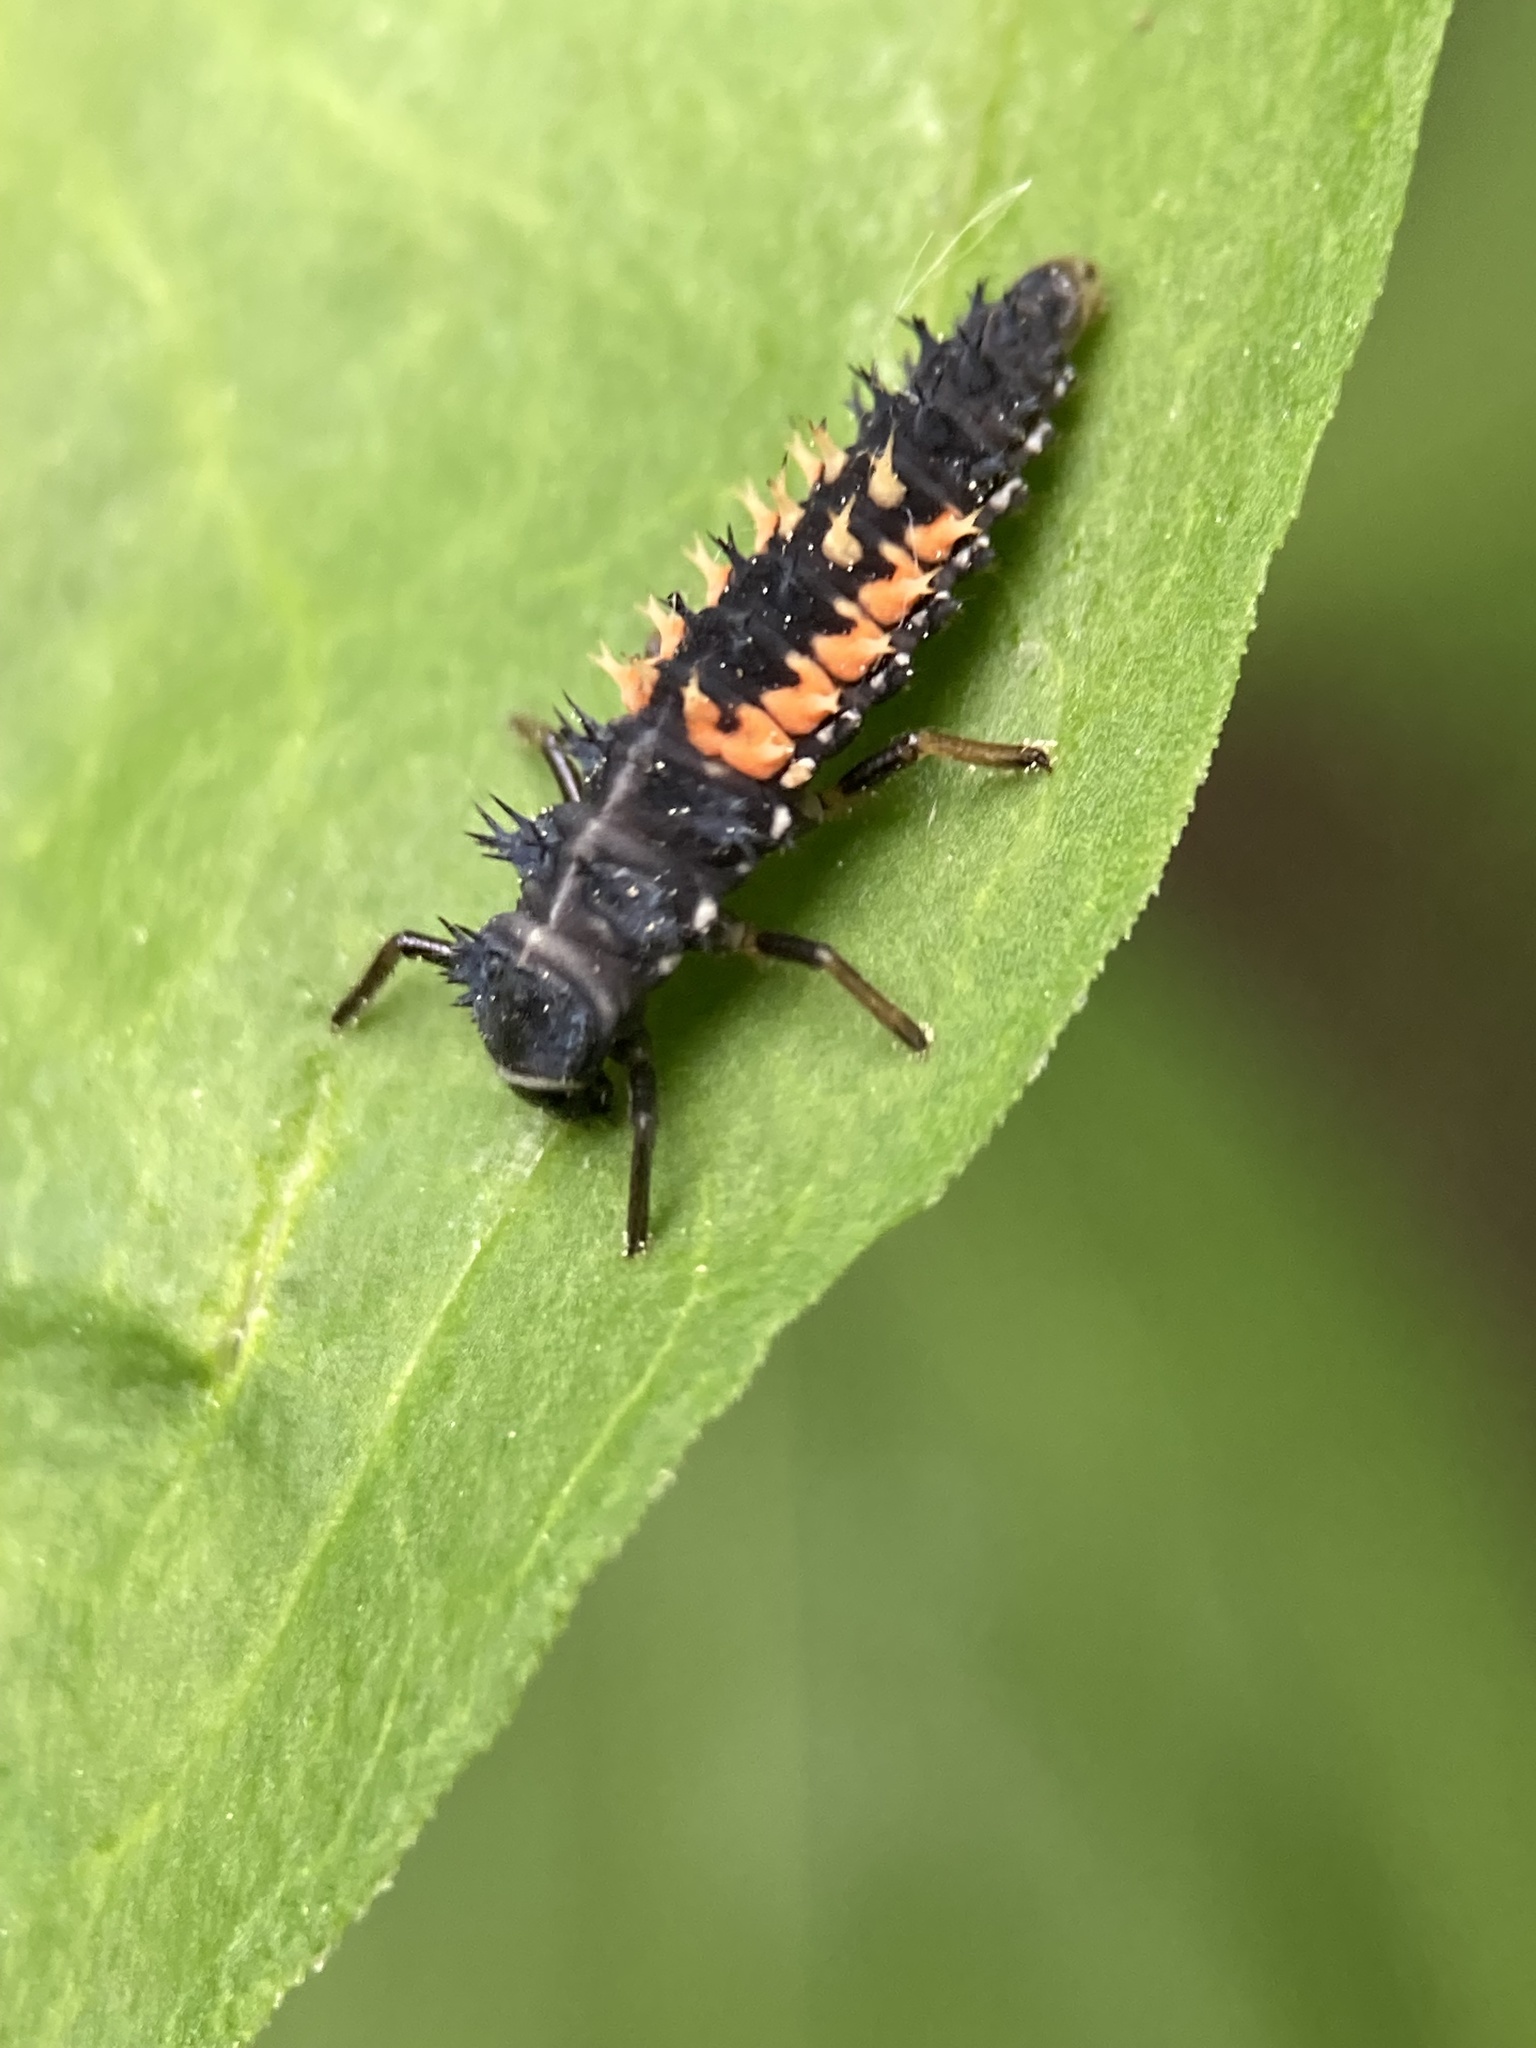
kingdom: Animalia
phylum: Arthropoda
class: Insecta
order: Coleoptera
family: Coccinellidae
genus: Harmonia
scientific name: Harmonia axyridis
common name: Harlequin ladybird
